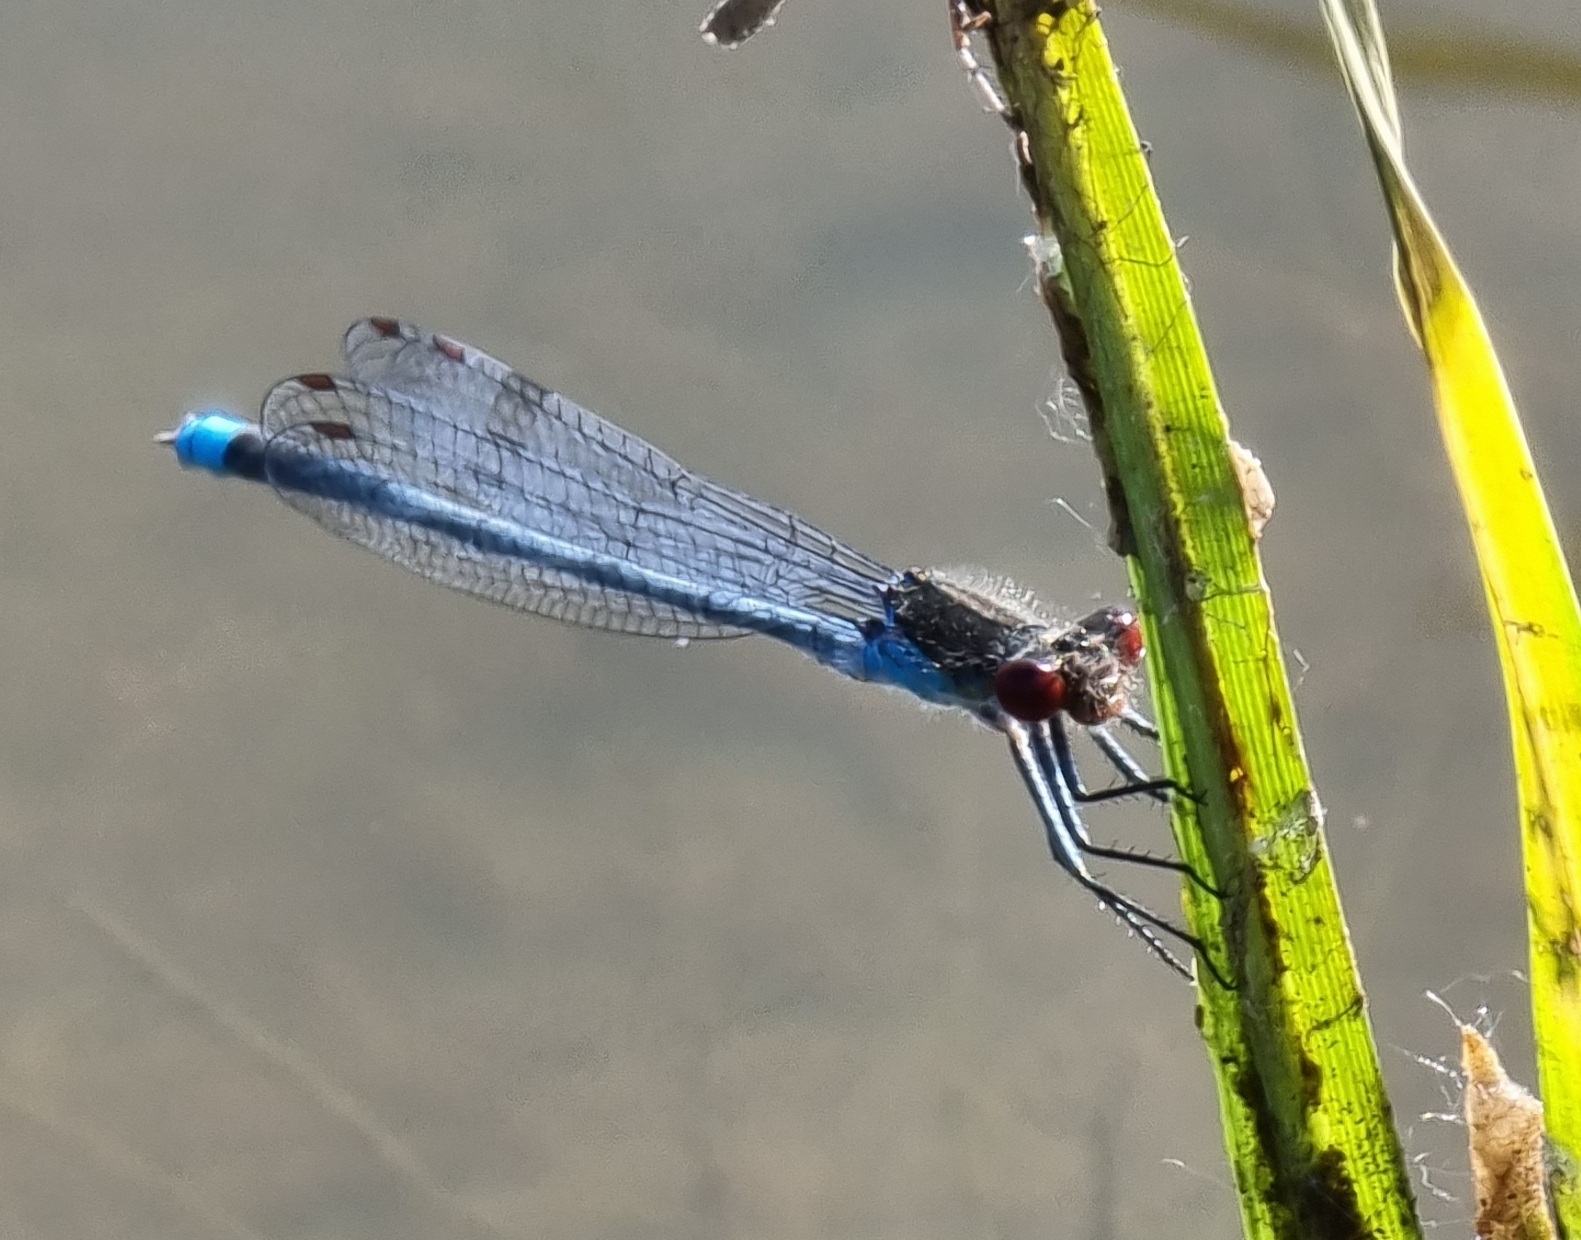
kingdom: Animalia
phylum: Arthropoda
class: Insecta
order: Odonata
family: Coenagrionidae
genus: Erythromma
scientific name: Erythromma najas
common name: Red-eyed damselfly
